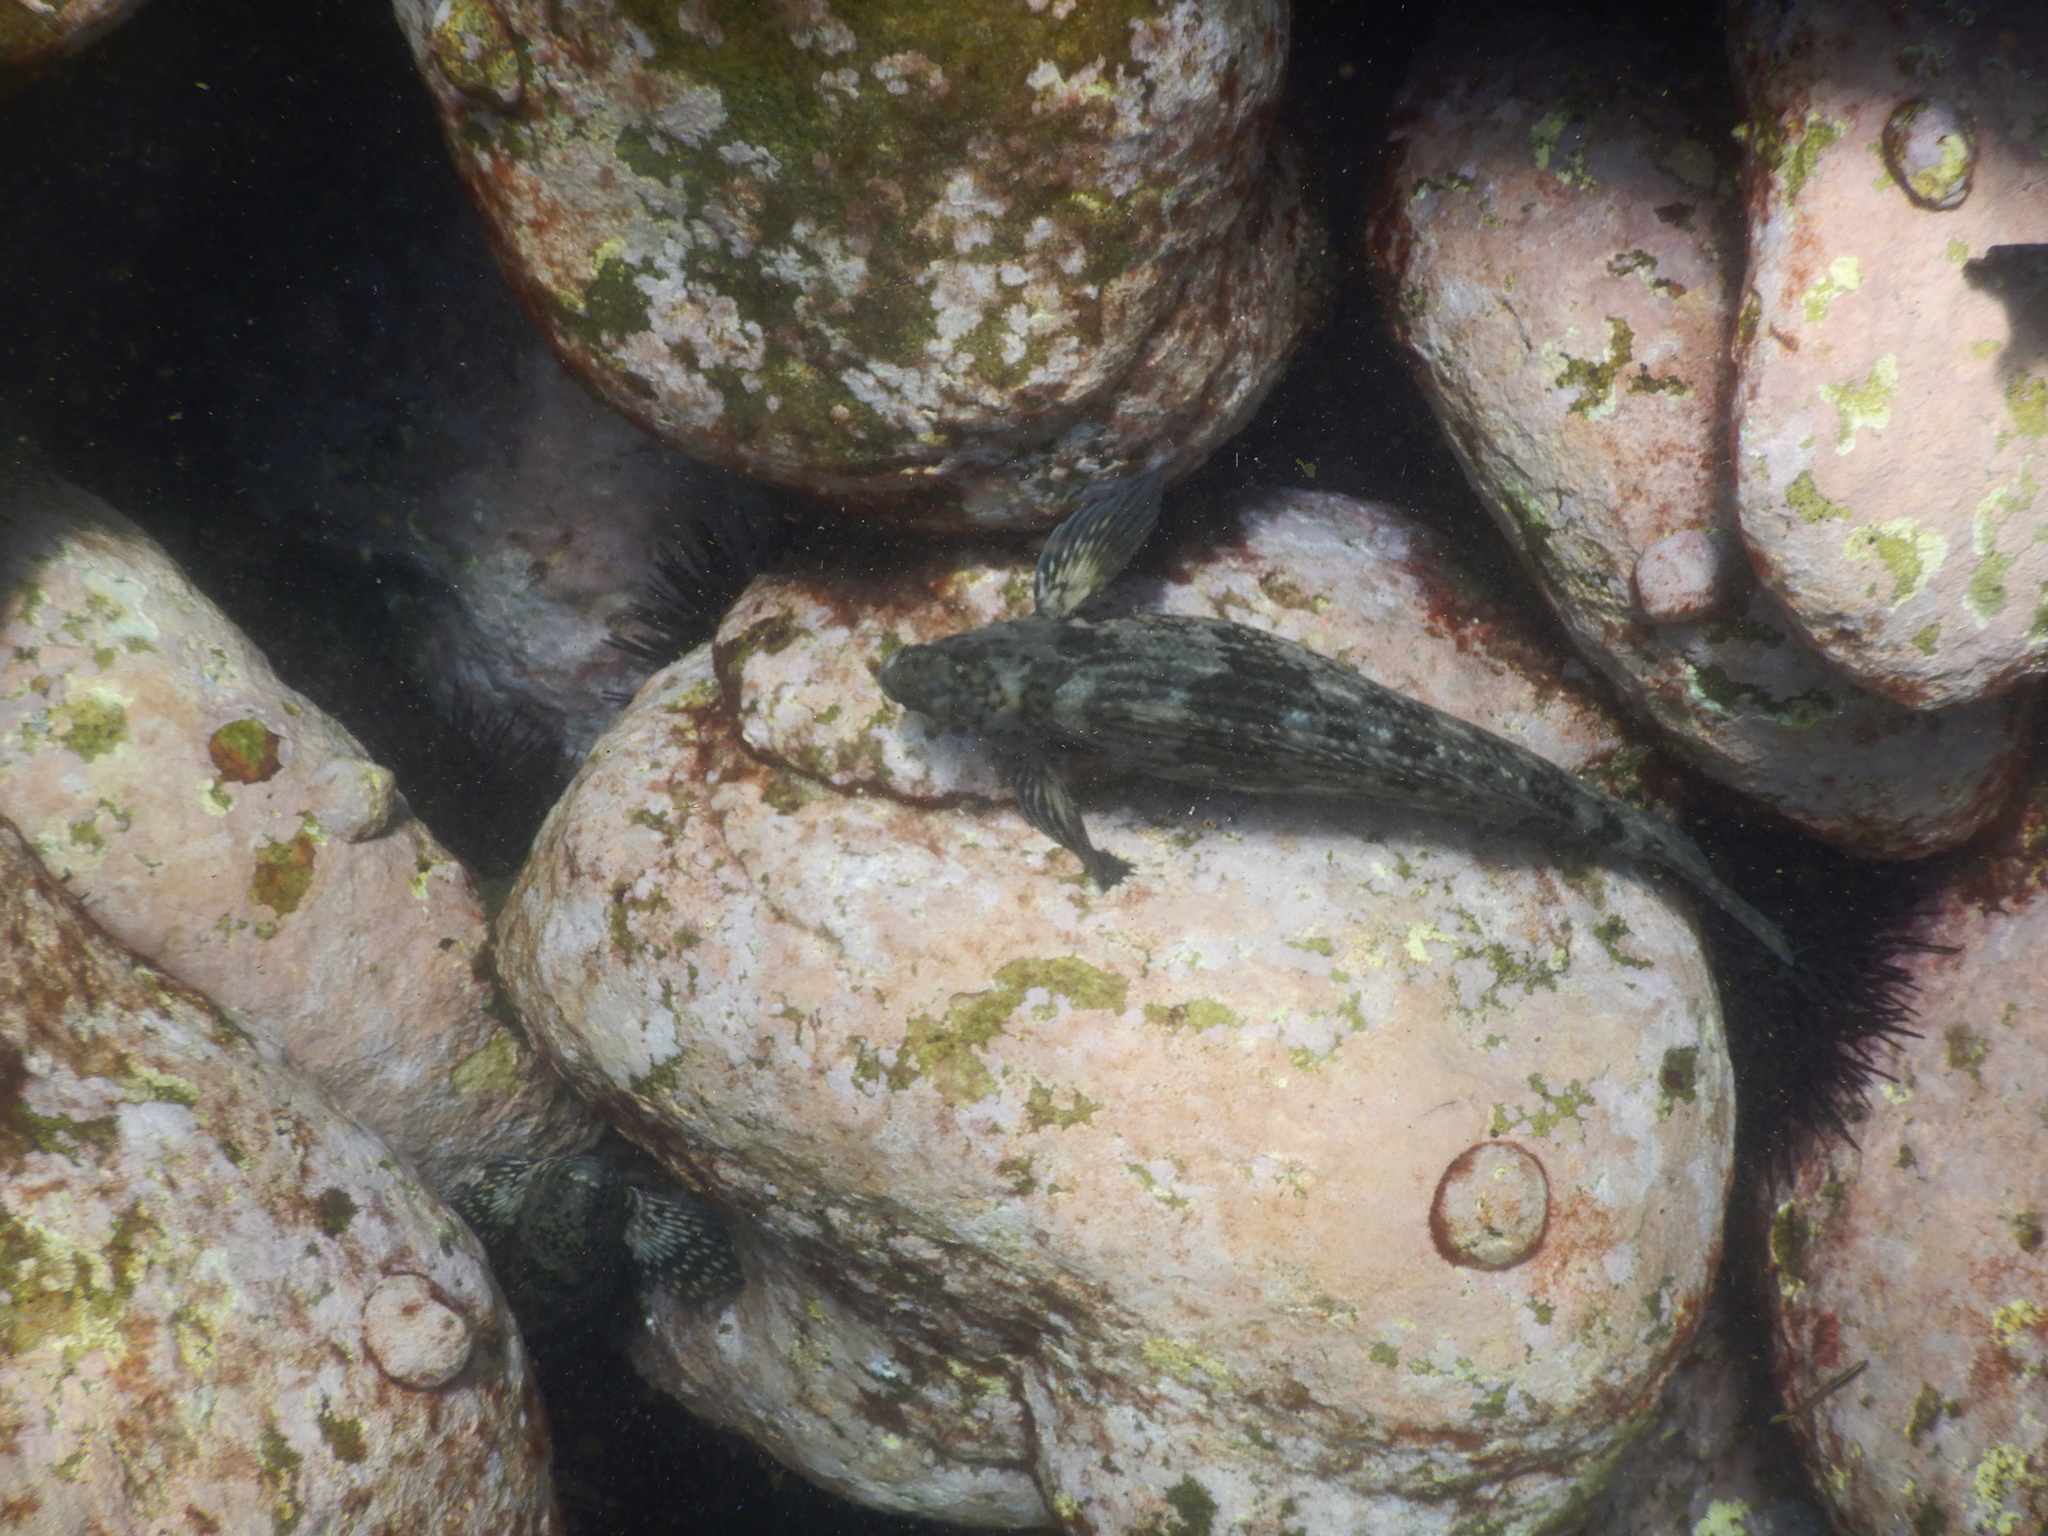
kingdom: Animalia
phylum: Chordata
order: Perciformes
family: Aplodactylidae
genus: Aplodactylus
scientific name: Aplodactylus lophodon
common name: Cockatoo fish
